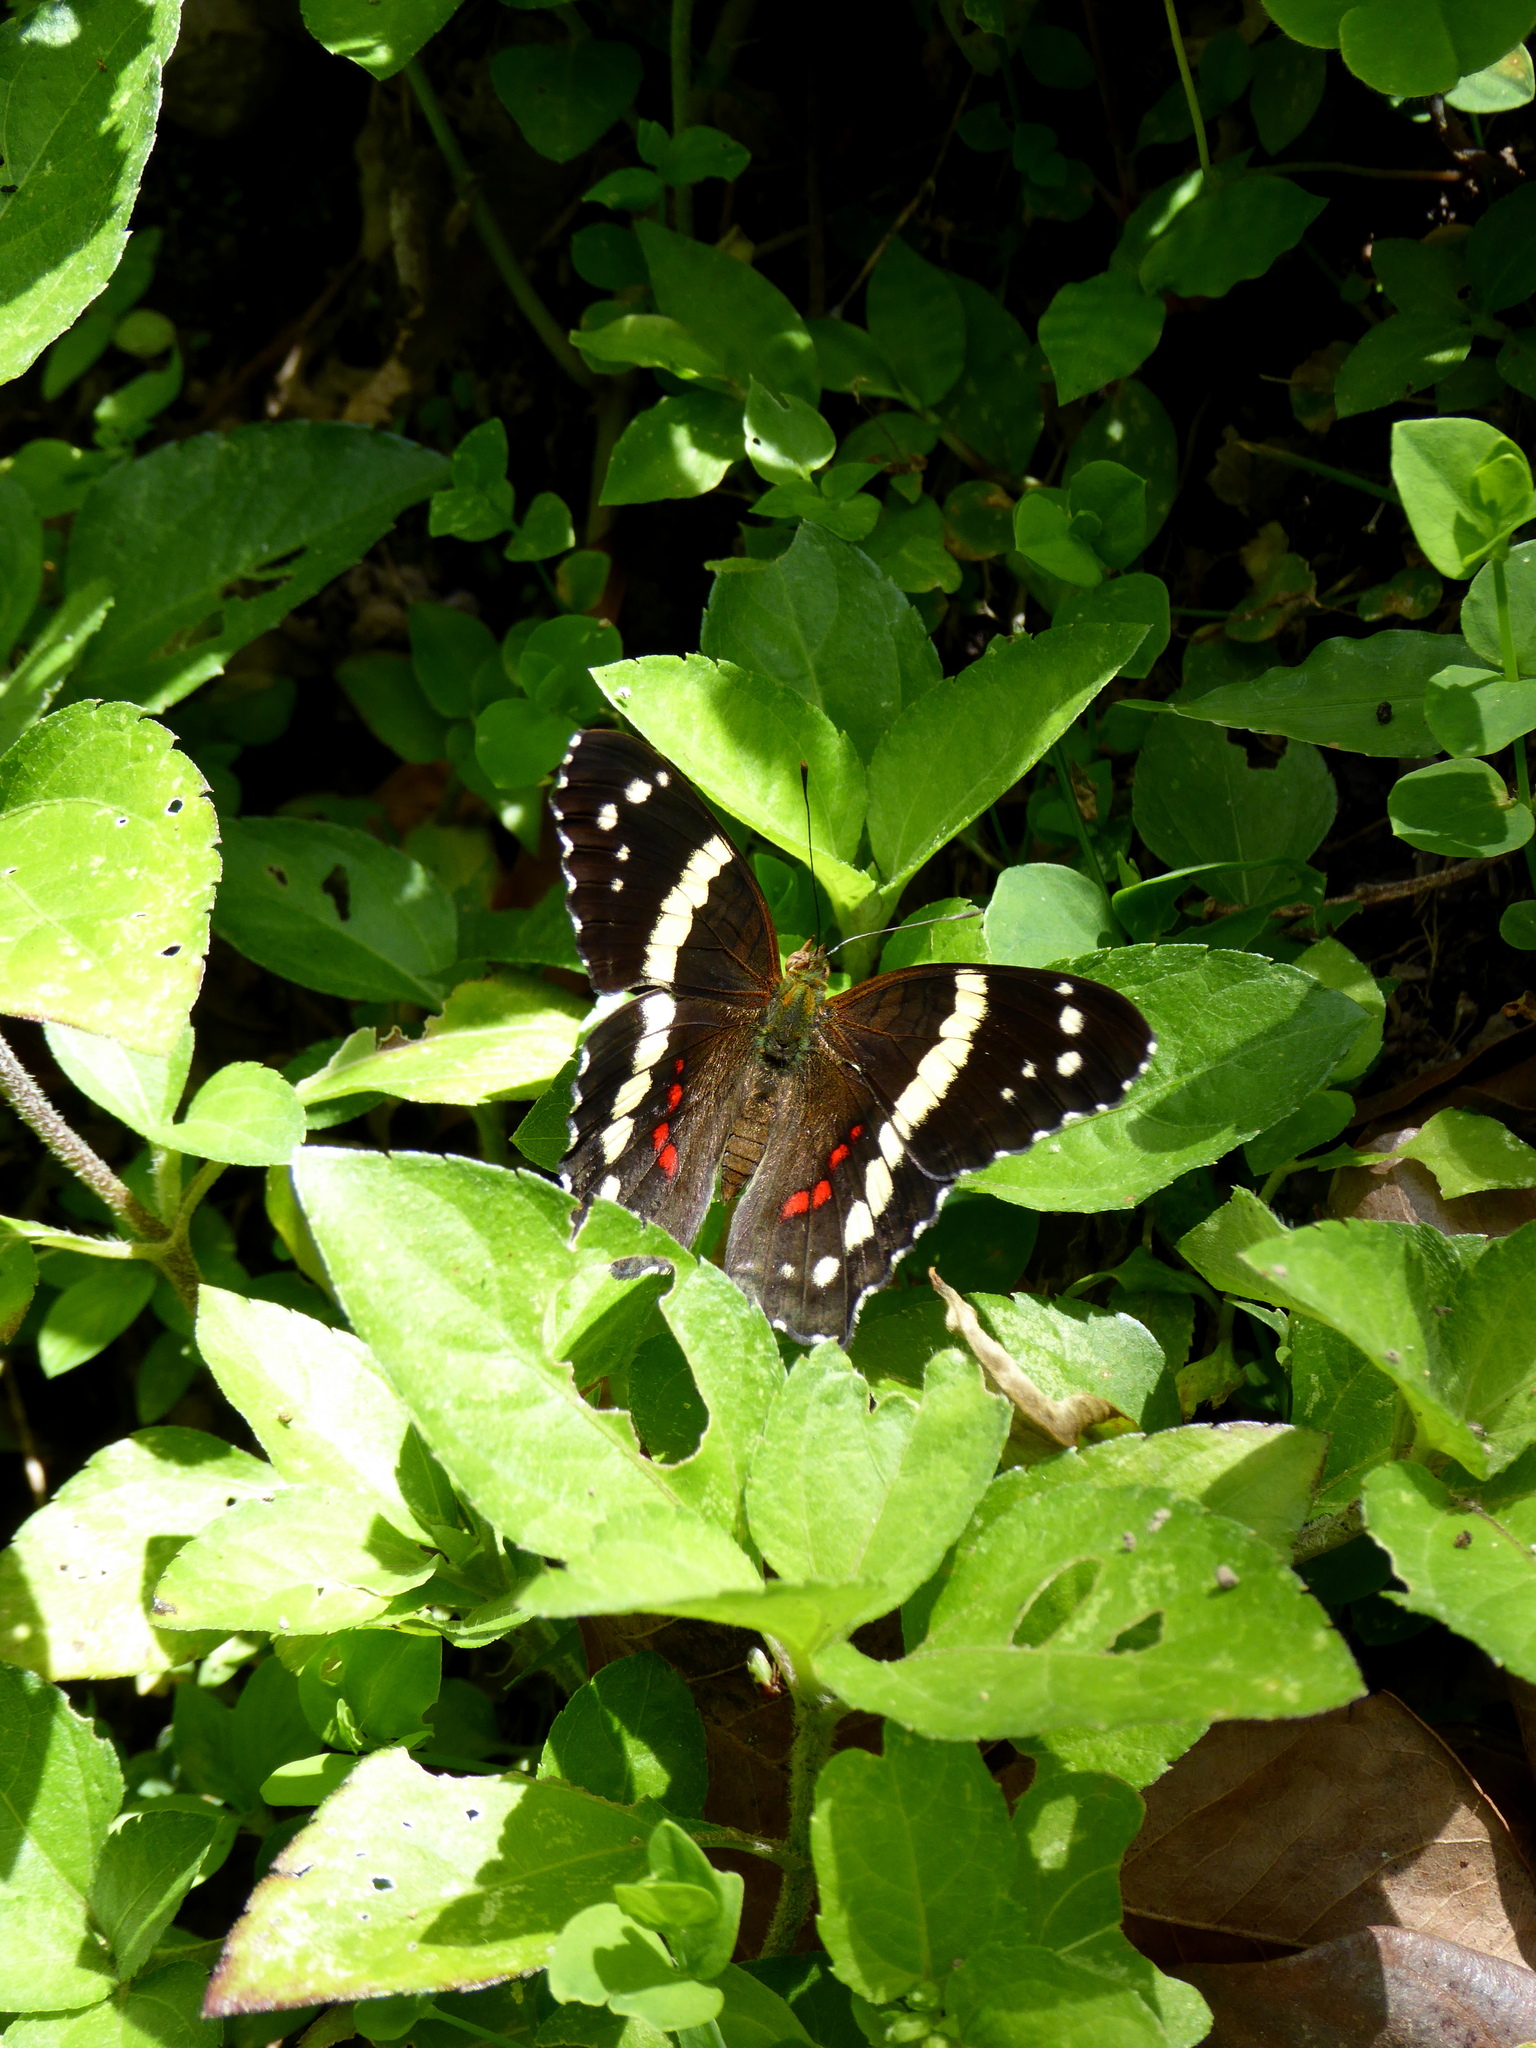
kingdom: Animalia
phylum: Arthropoda
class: Insecta
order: Lepidoptera
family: Nymphalidae
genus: Anartia
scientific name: Anartia fatima
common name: Banded peacock
